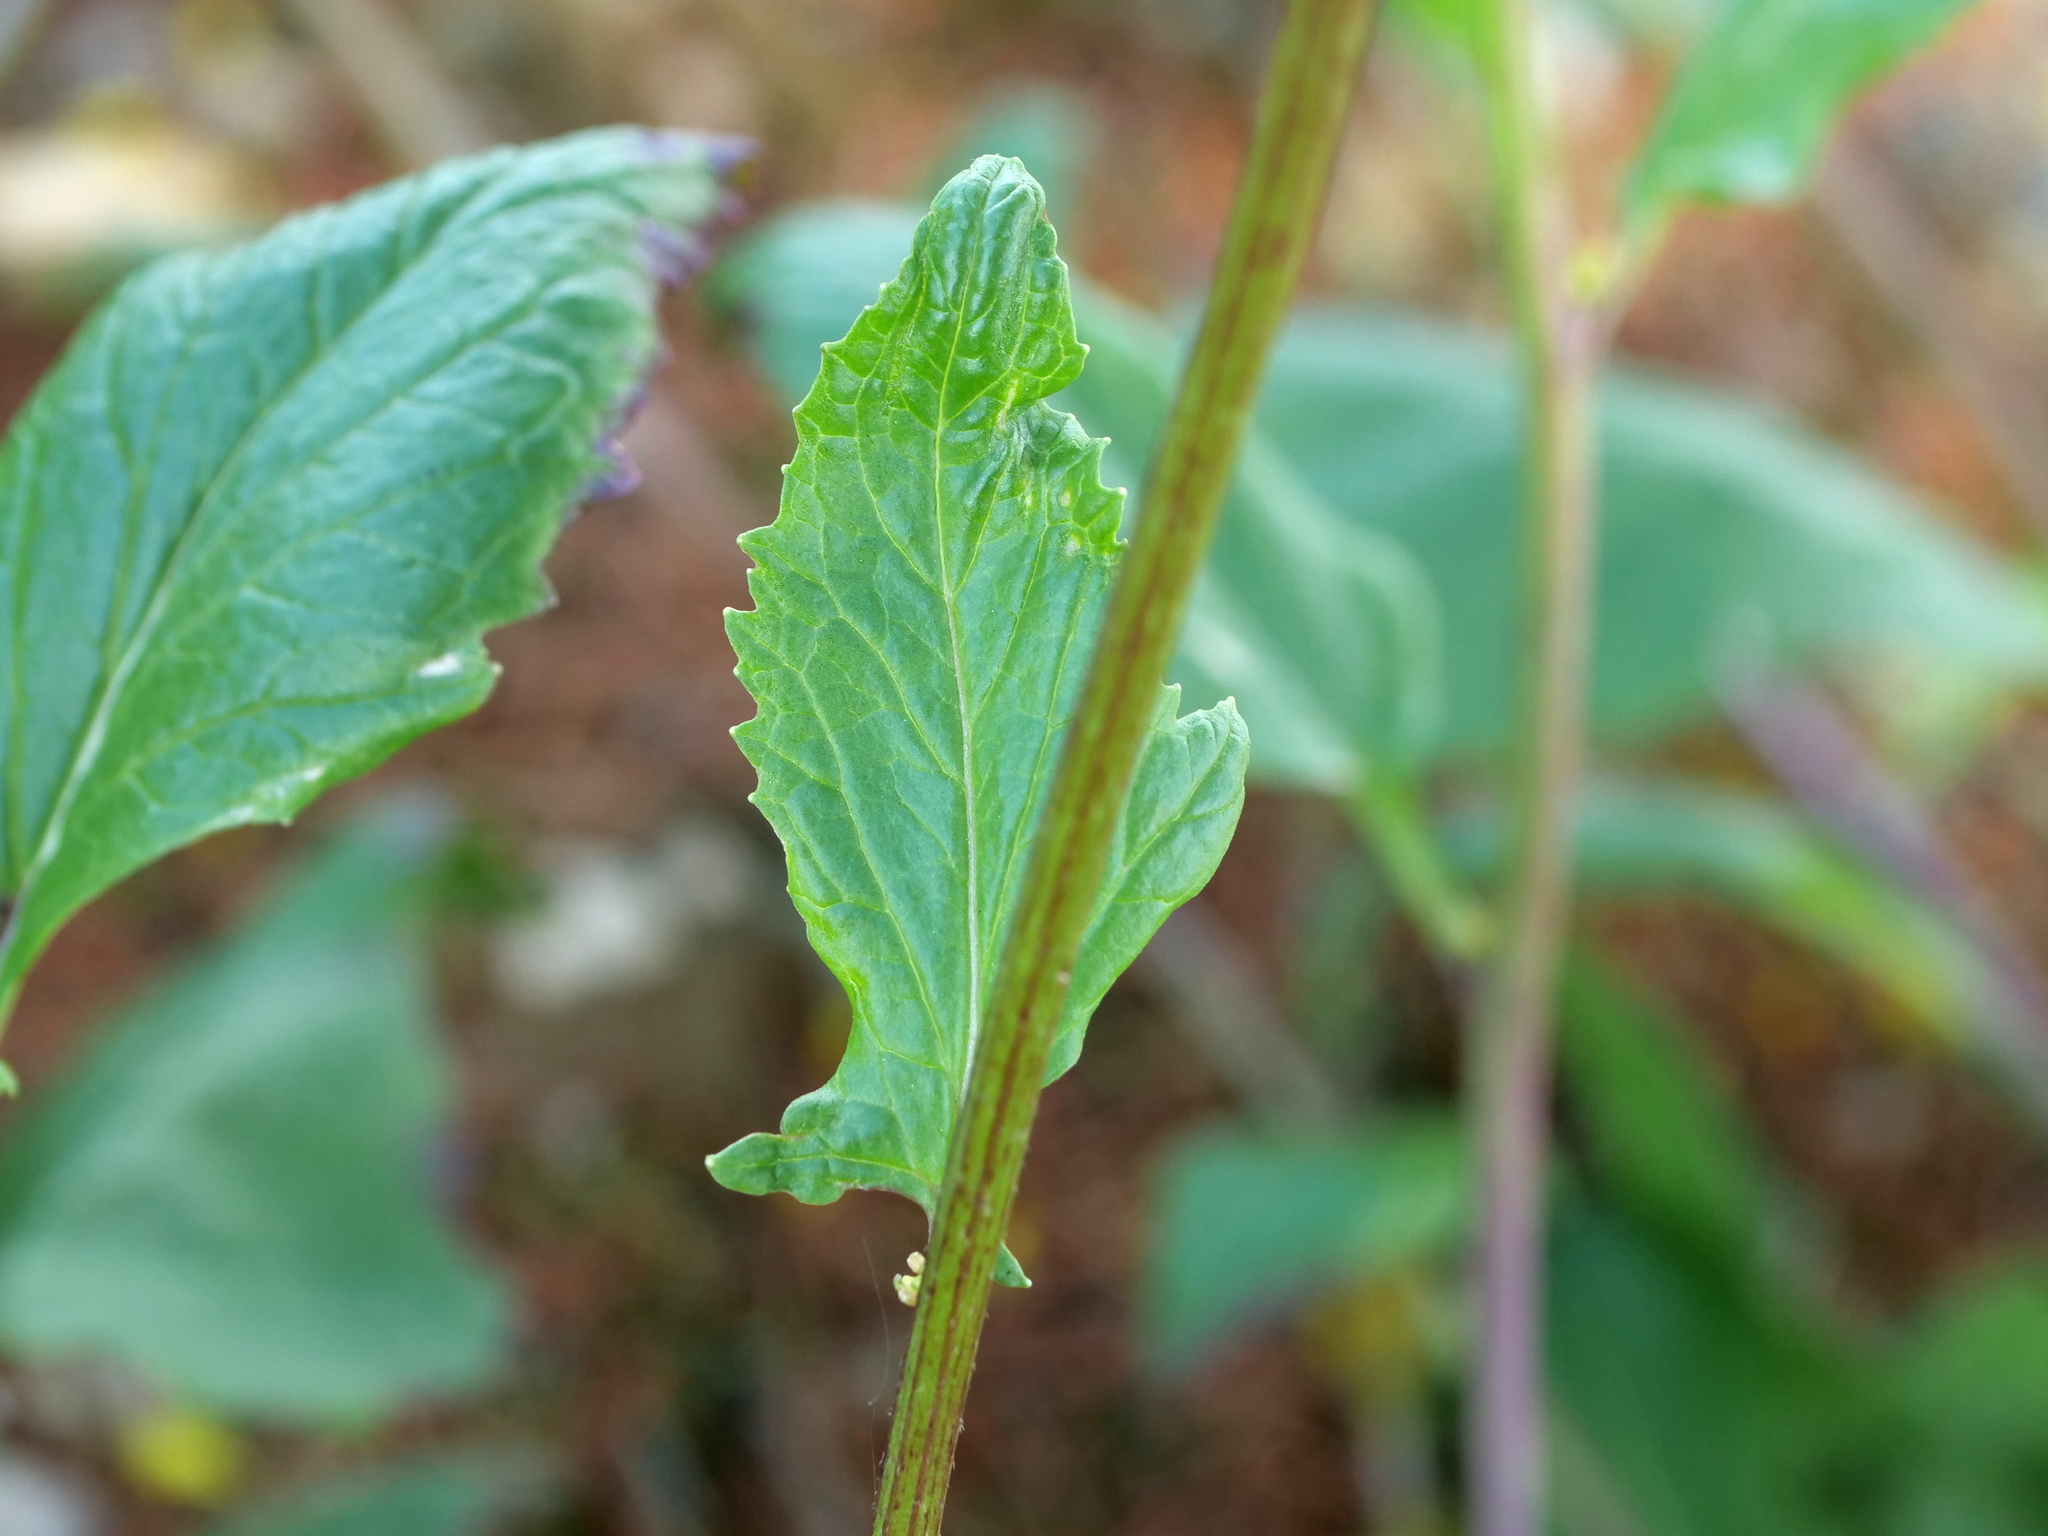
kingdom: Plantae
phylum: Tracheophyta
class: Magnoliopsida
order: Brassicales
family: Brassicaceae
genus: Sinapis
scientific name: Sinapis arvensis
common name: Charlock
